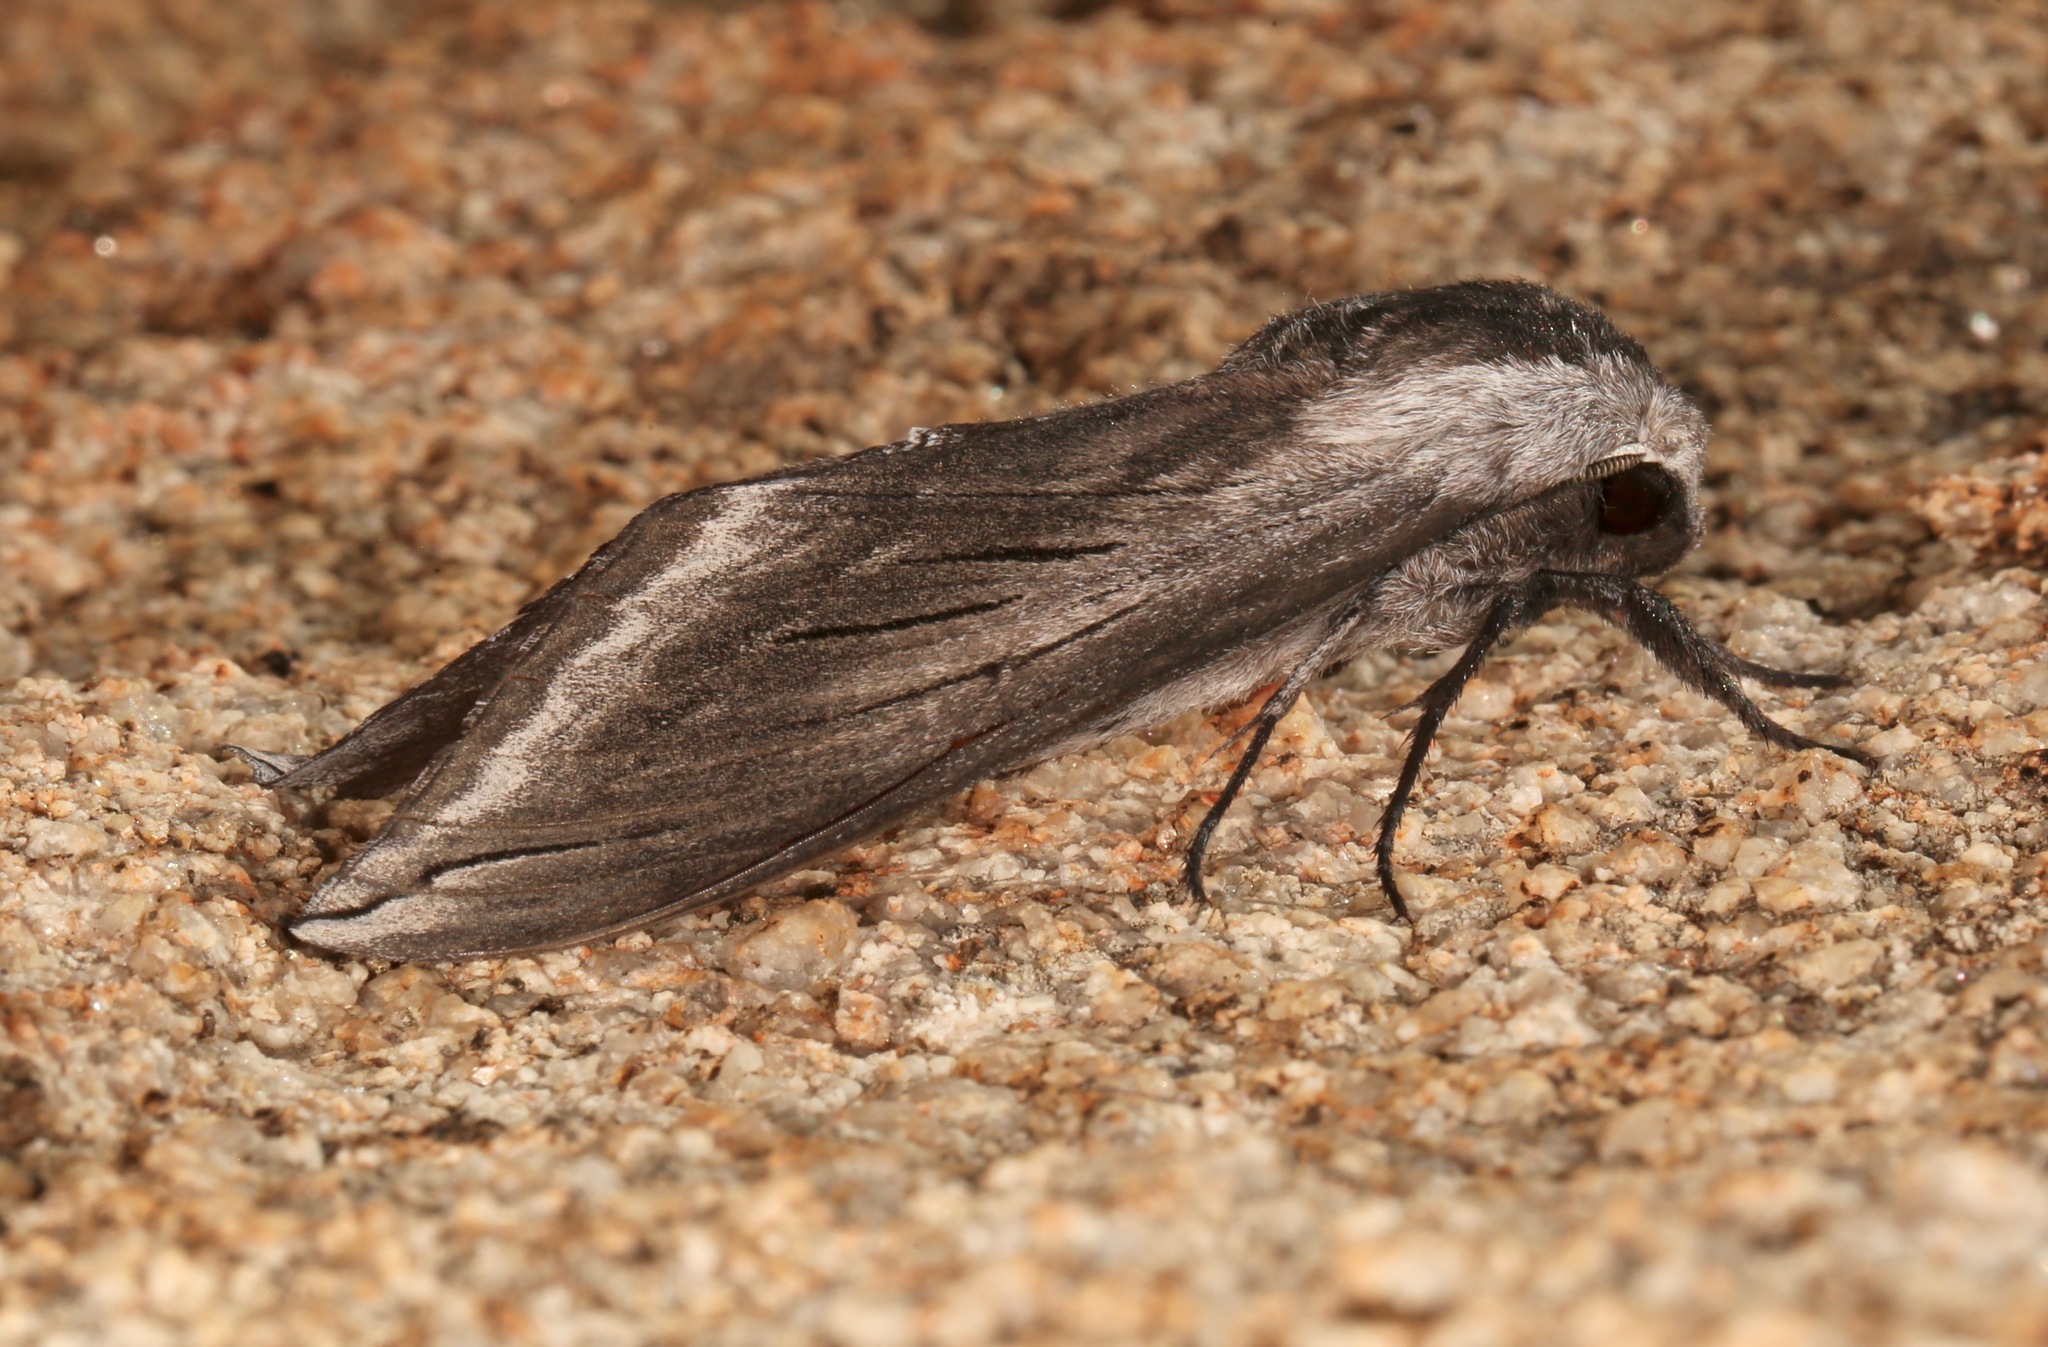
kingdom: Animalia
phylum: Arthropoda
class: Insecta
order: Lepidoptera
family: Sphingidae
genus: Sphinx
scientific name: Sphinx perelegans
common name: Elegant sphinx
